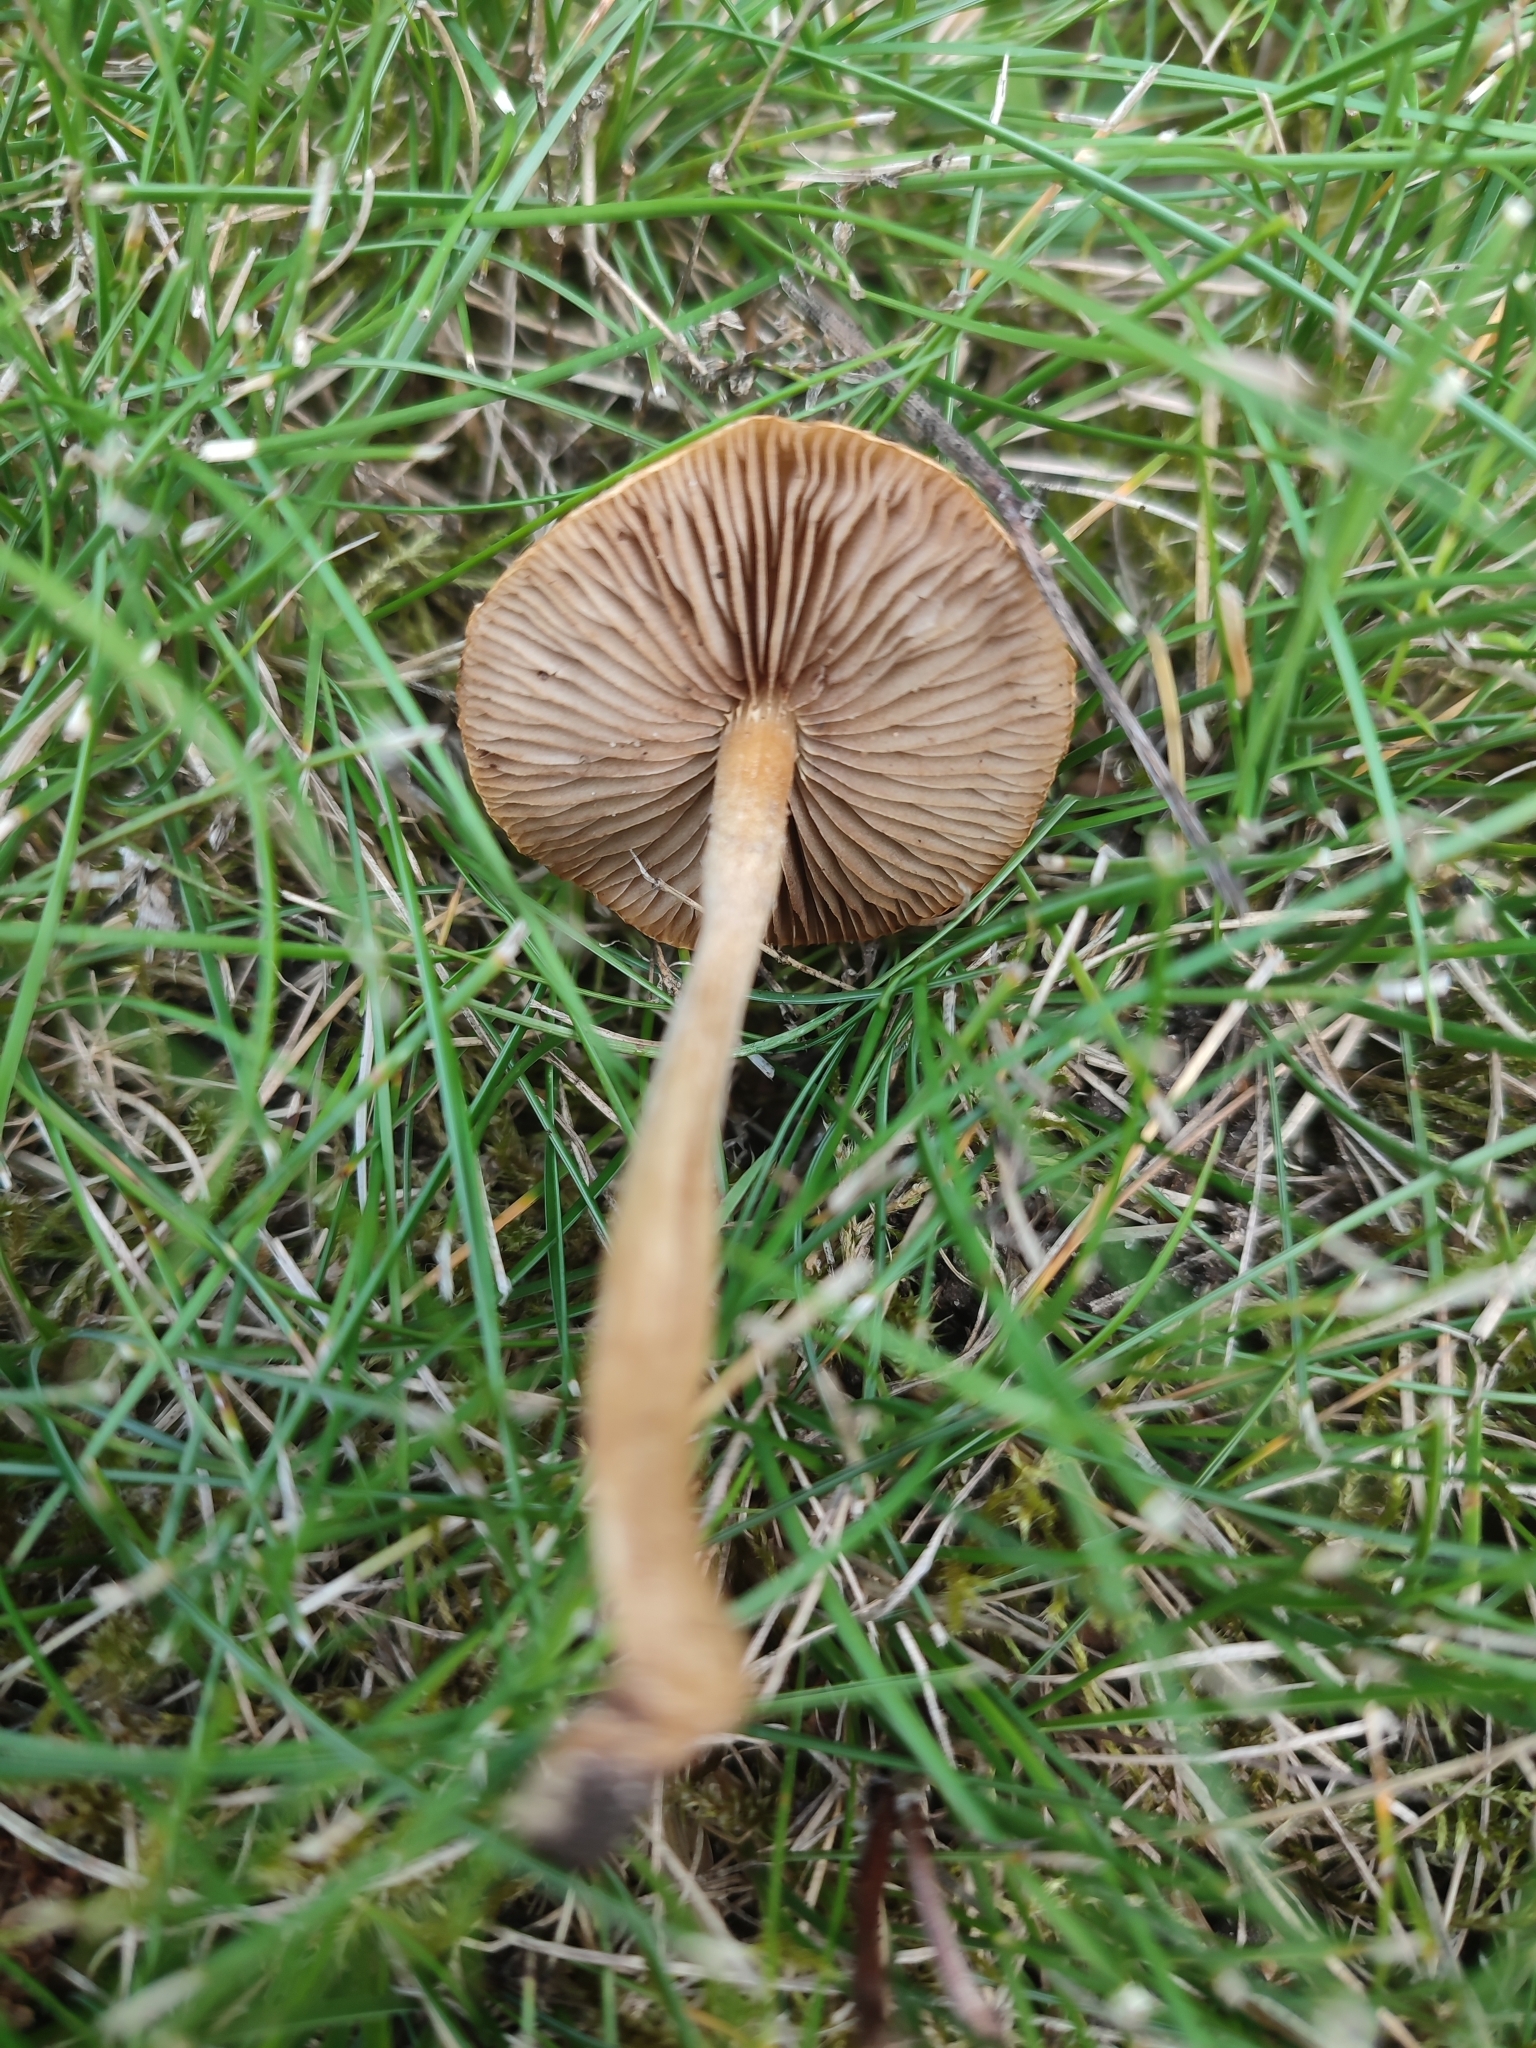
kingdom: Fungi
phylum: Basidiomycota
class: Agaricomycetes
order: Agaricales
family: Marasmiaceae
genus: Marasmius
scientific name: Marasmius oreades
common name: Fairy ring champignon
